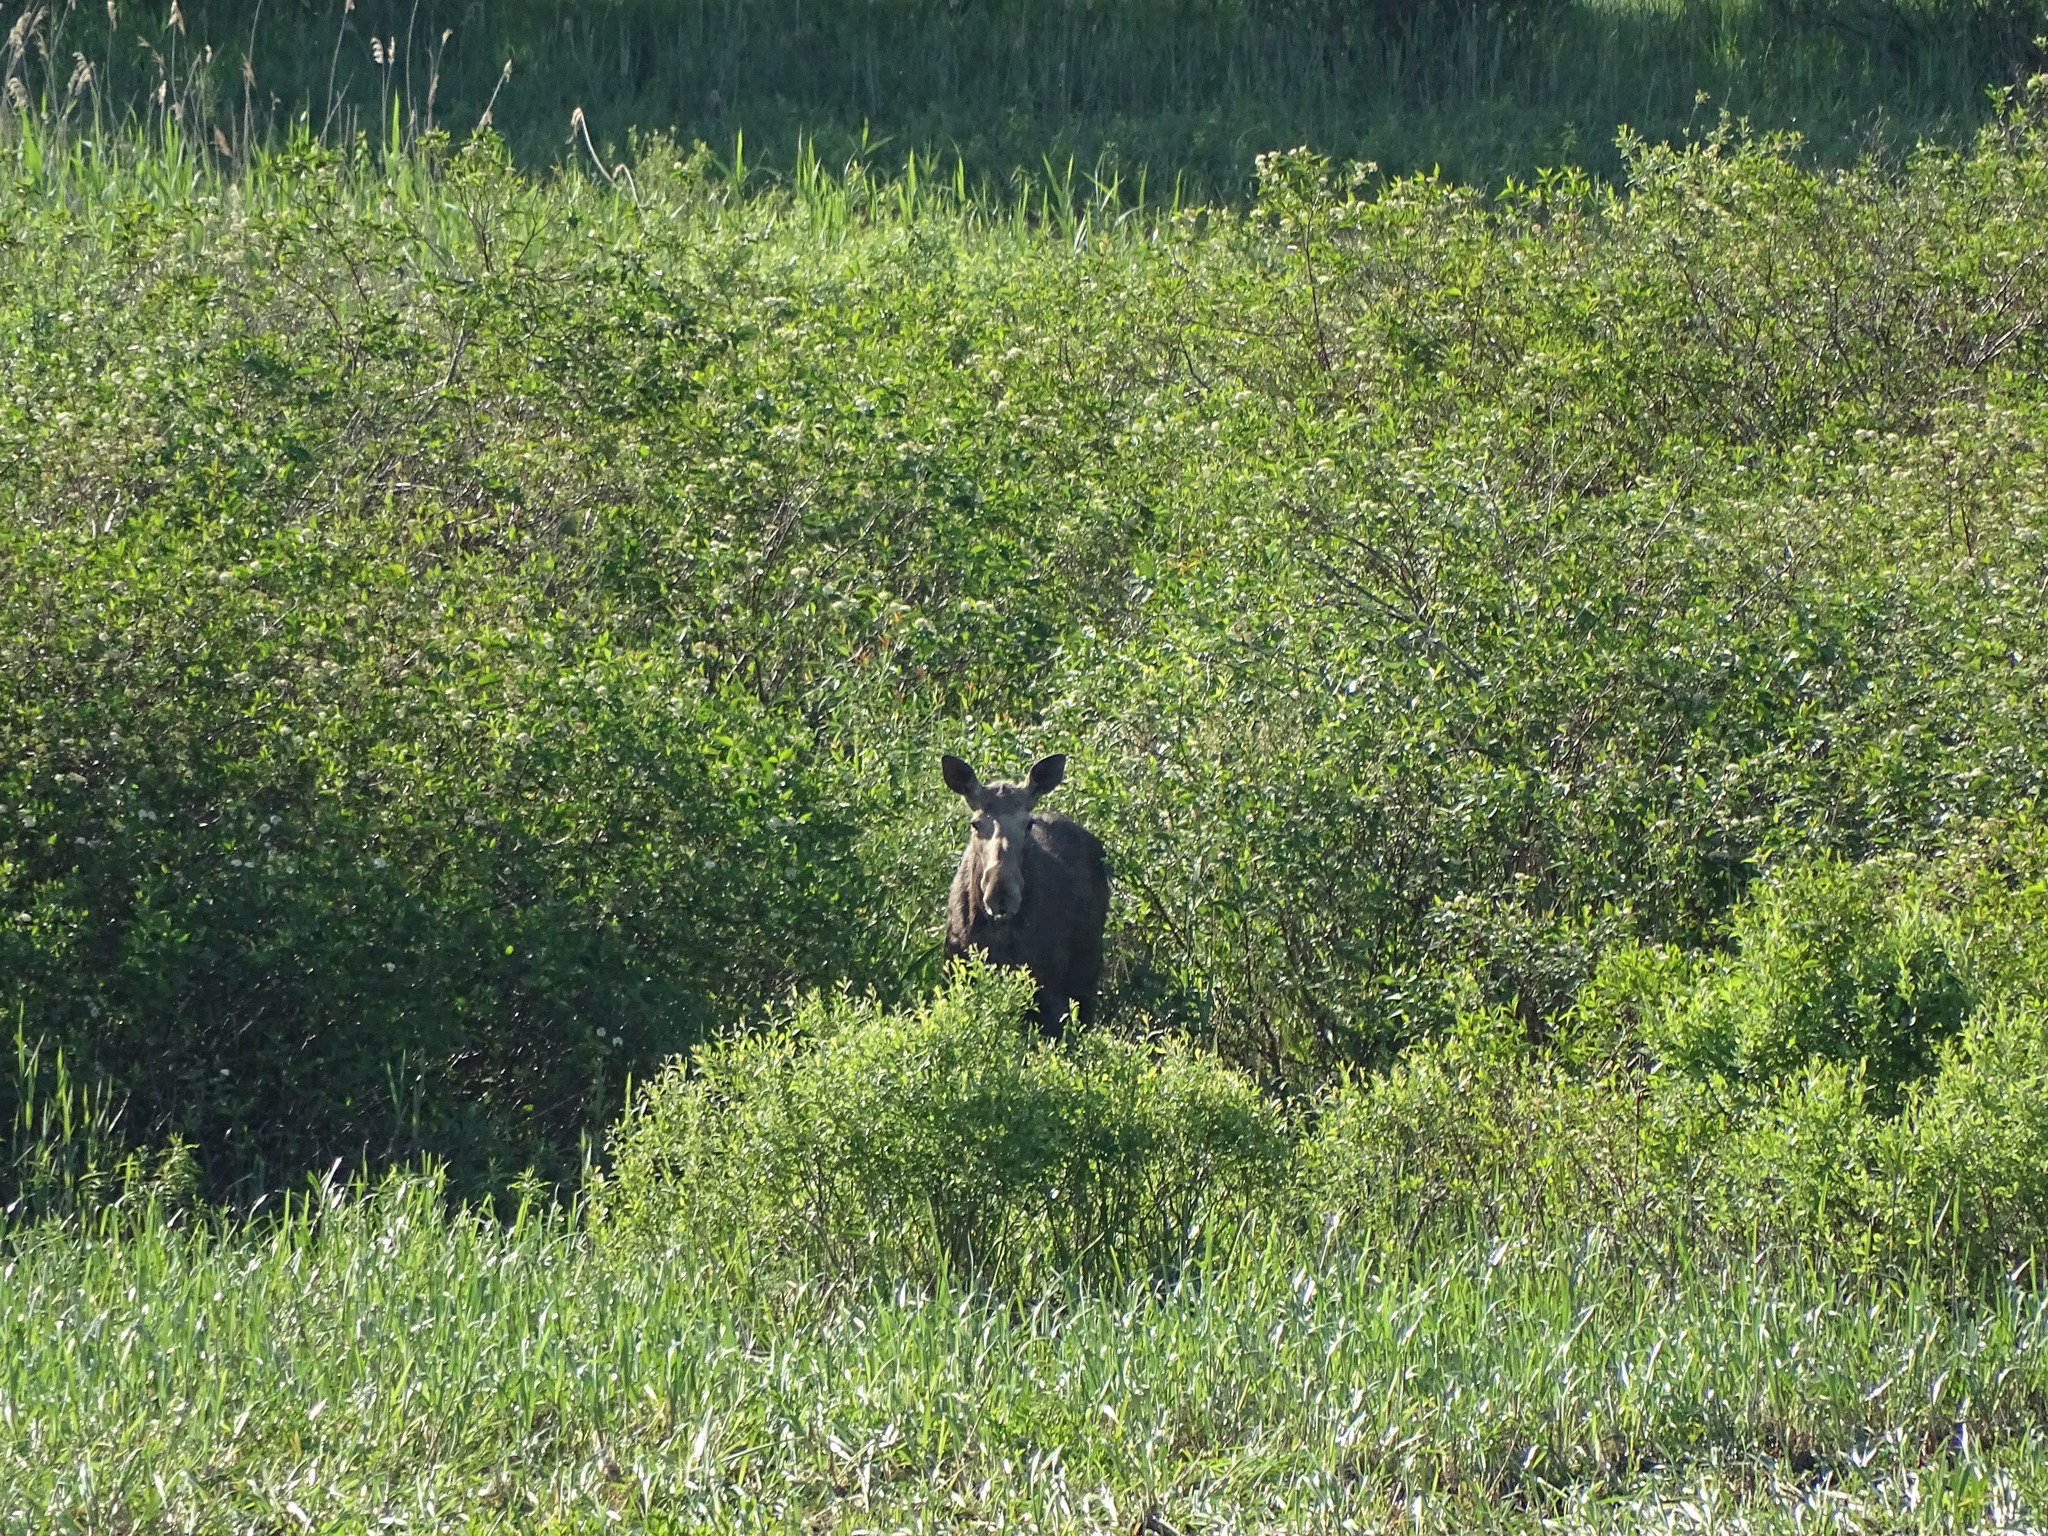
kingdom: Animalia
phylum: Chordata
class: Mammalia
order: Artiodactyla
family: Cervidae
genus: Alces
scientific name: Alces alces
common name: Moose
